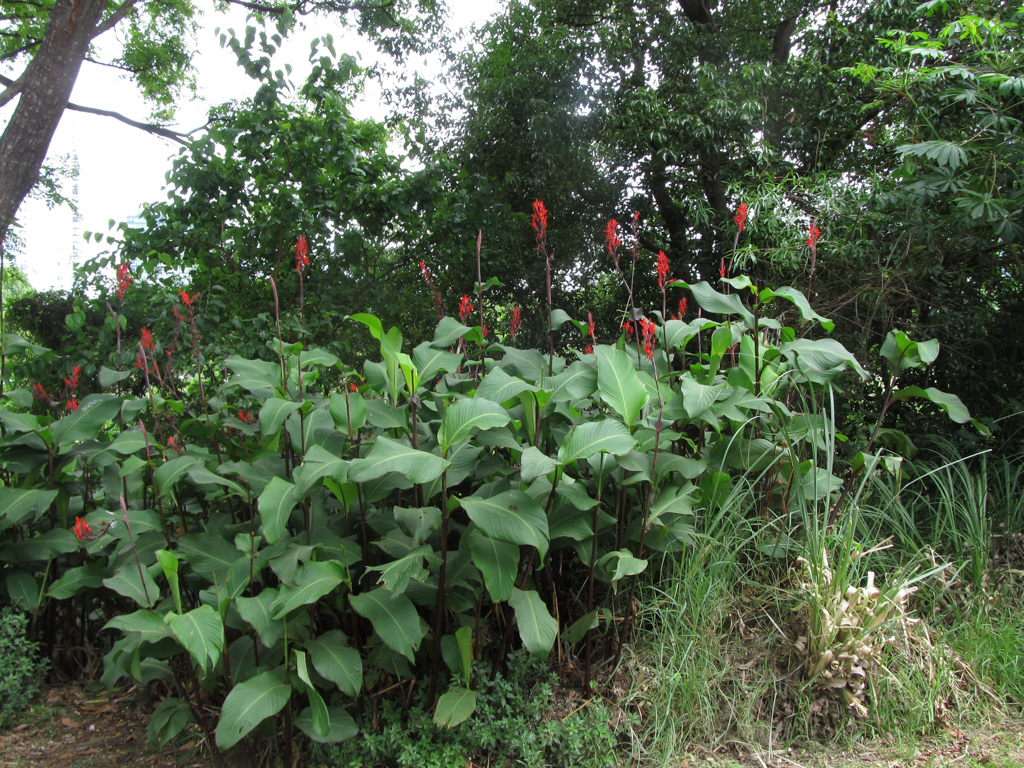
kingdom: Plantae
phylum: Tracheophyta
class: Liliopsida
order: Zingiberales
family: Cannaceae
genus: Canna
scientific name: Canna indica
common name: Indian shot
